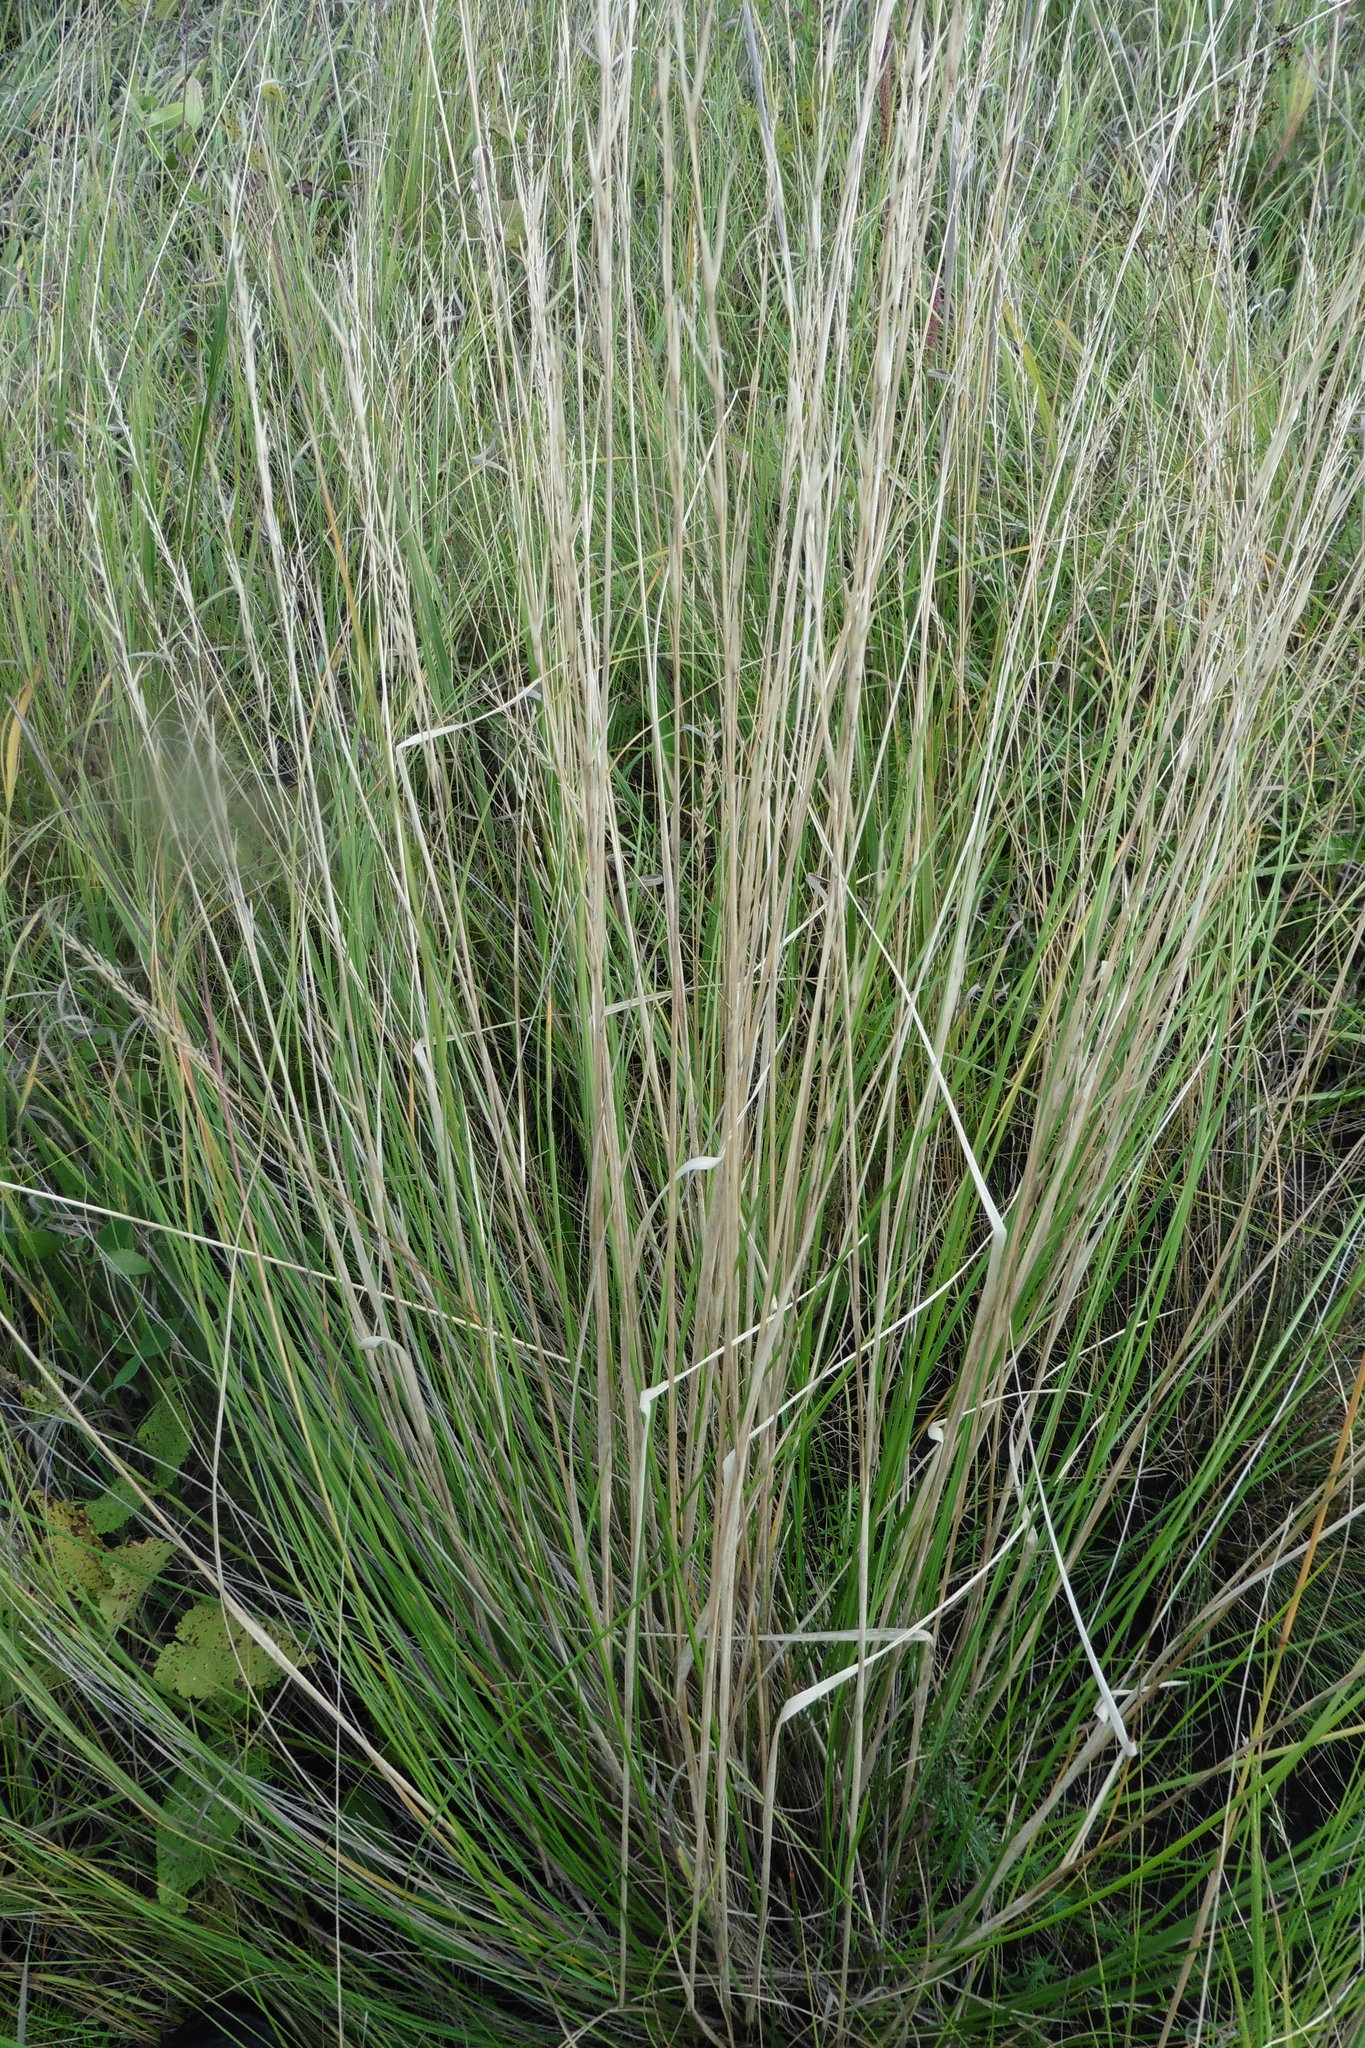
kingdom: Plantae
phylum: Tracheophyta
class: Liliopsida
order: Poales
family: Poaceae
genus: Stipa
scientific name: Stipa pennata
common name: European feather grass
